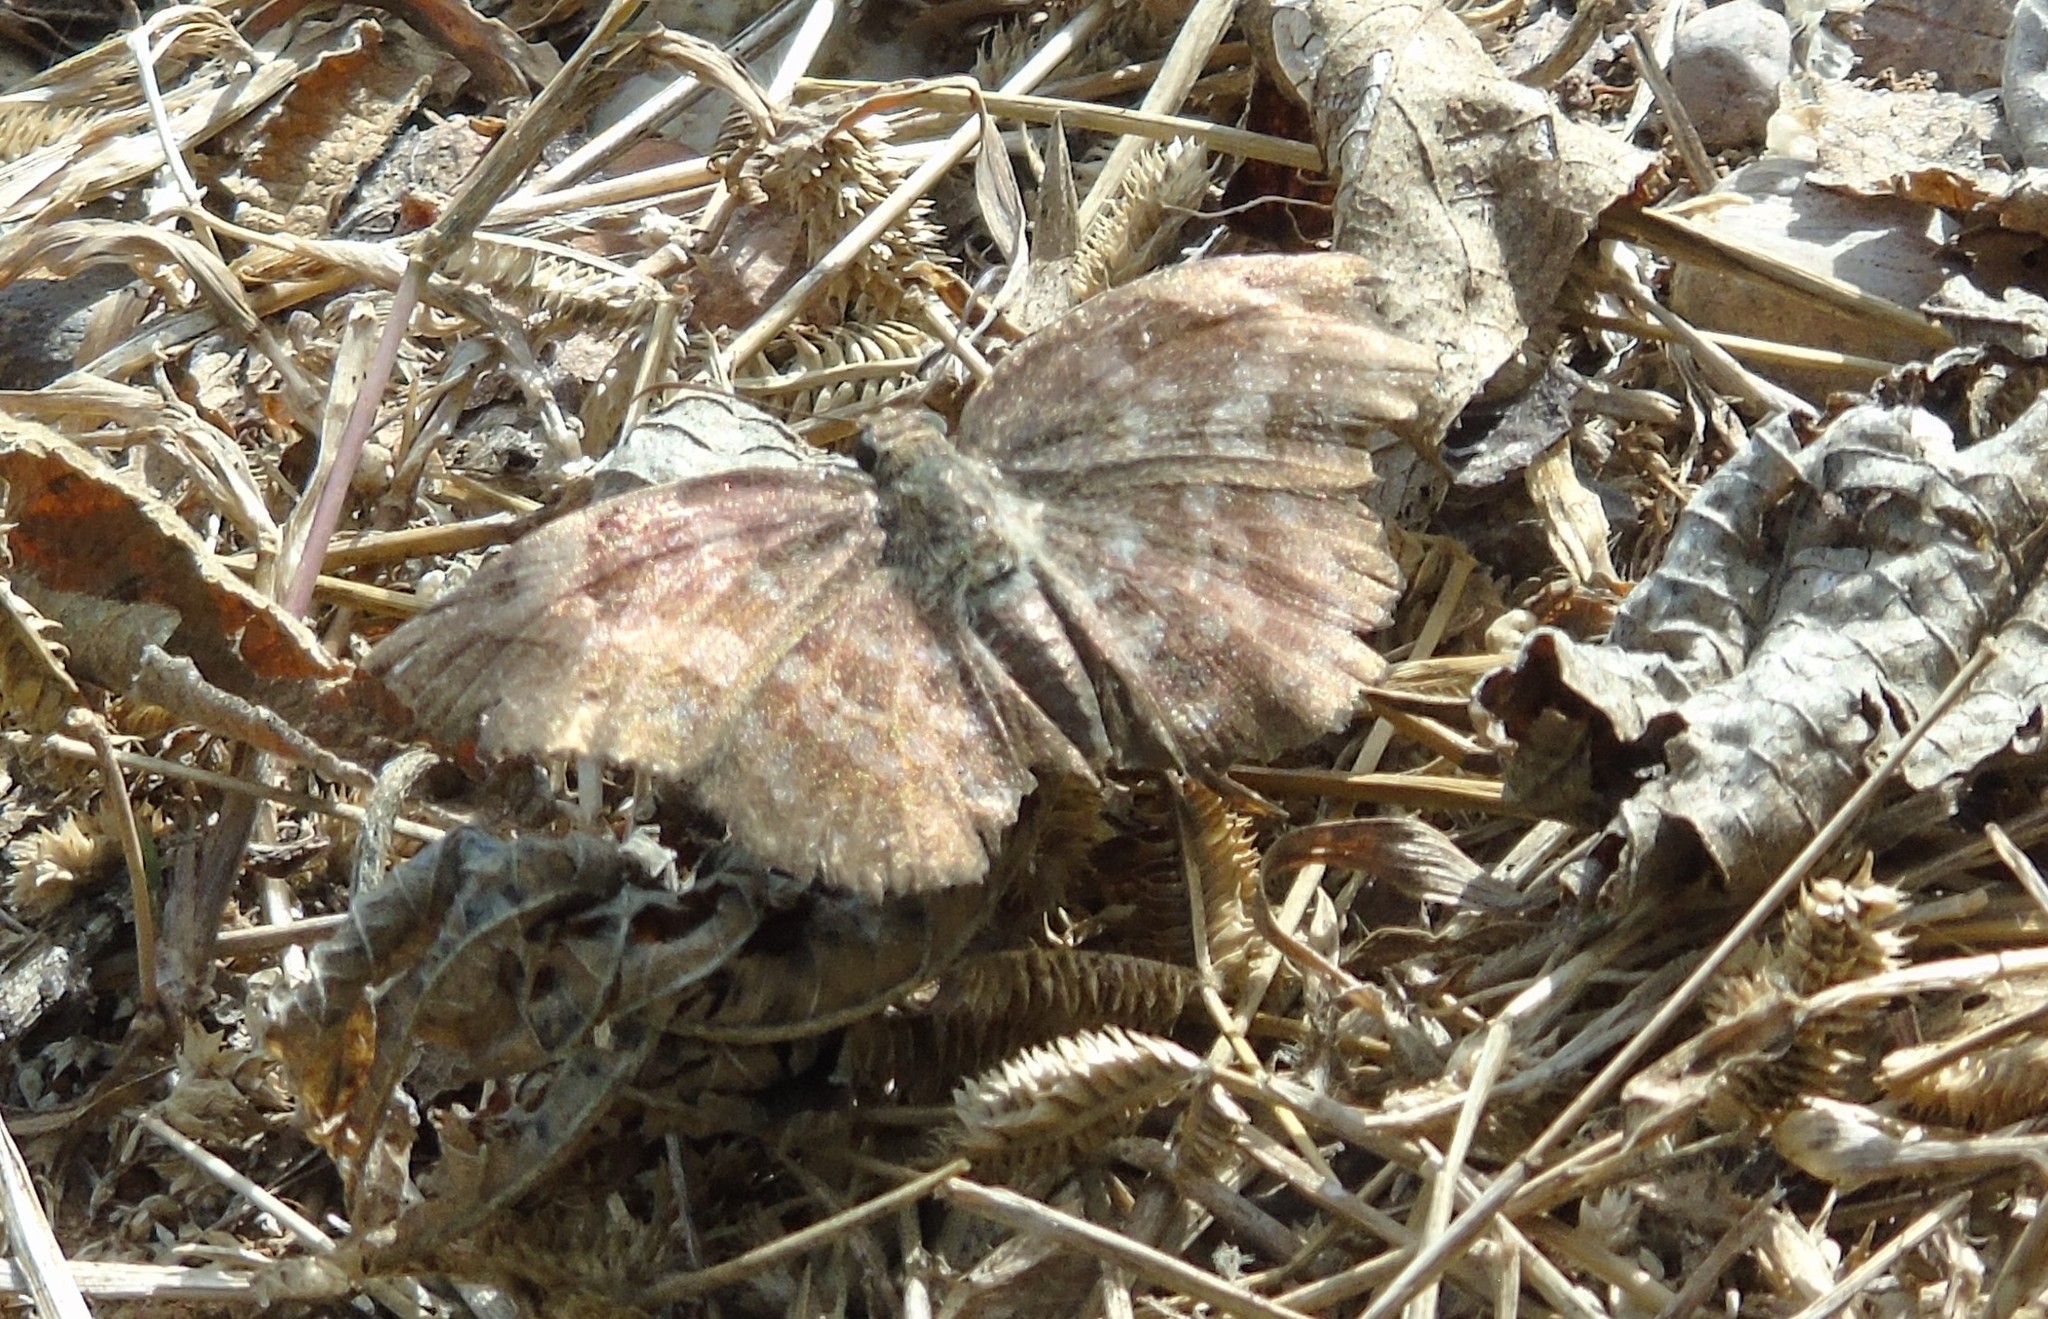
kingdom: Animalia
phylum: Arthropoda
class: Insecta
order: Lepidoptera
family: Hesperiidae
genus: Achlyodes
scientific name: Achlyodes thraso
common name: Sickle-winged skipper
